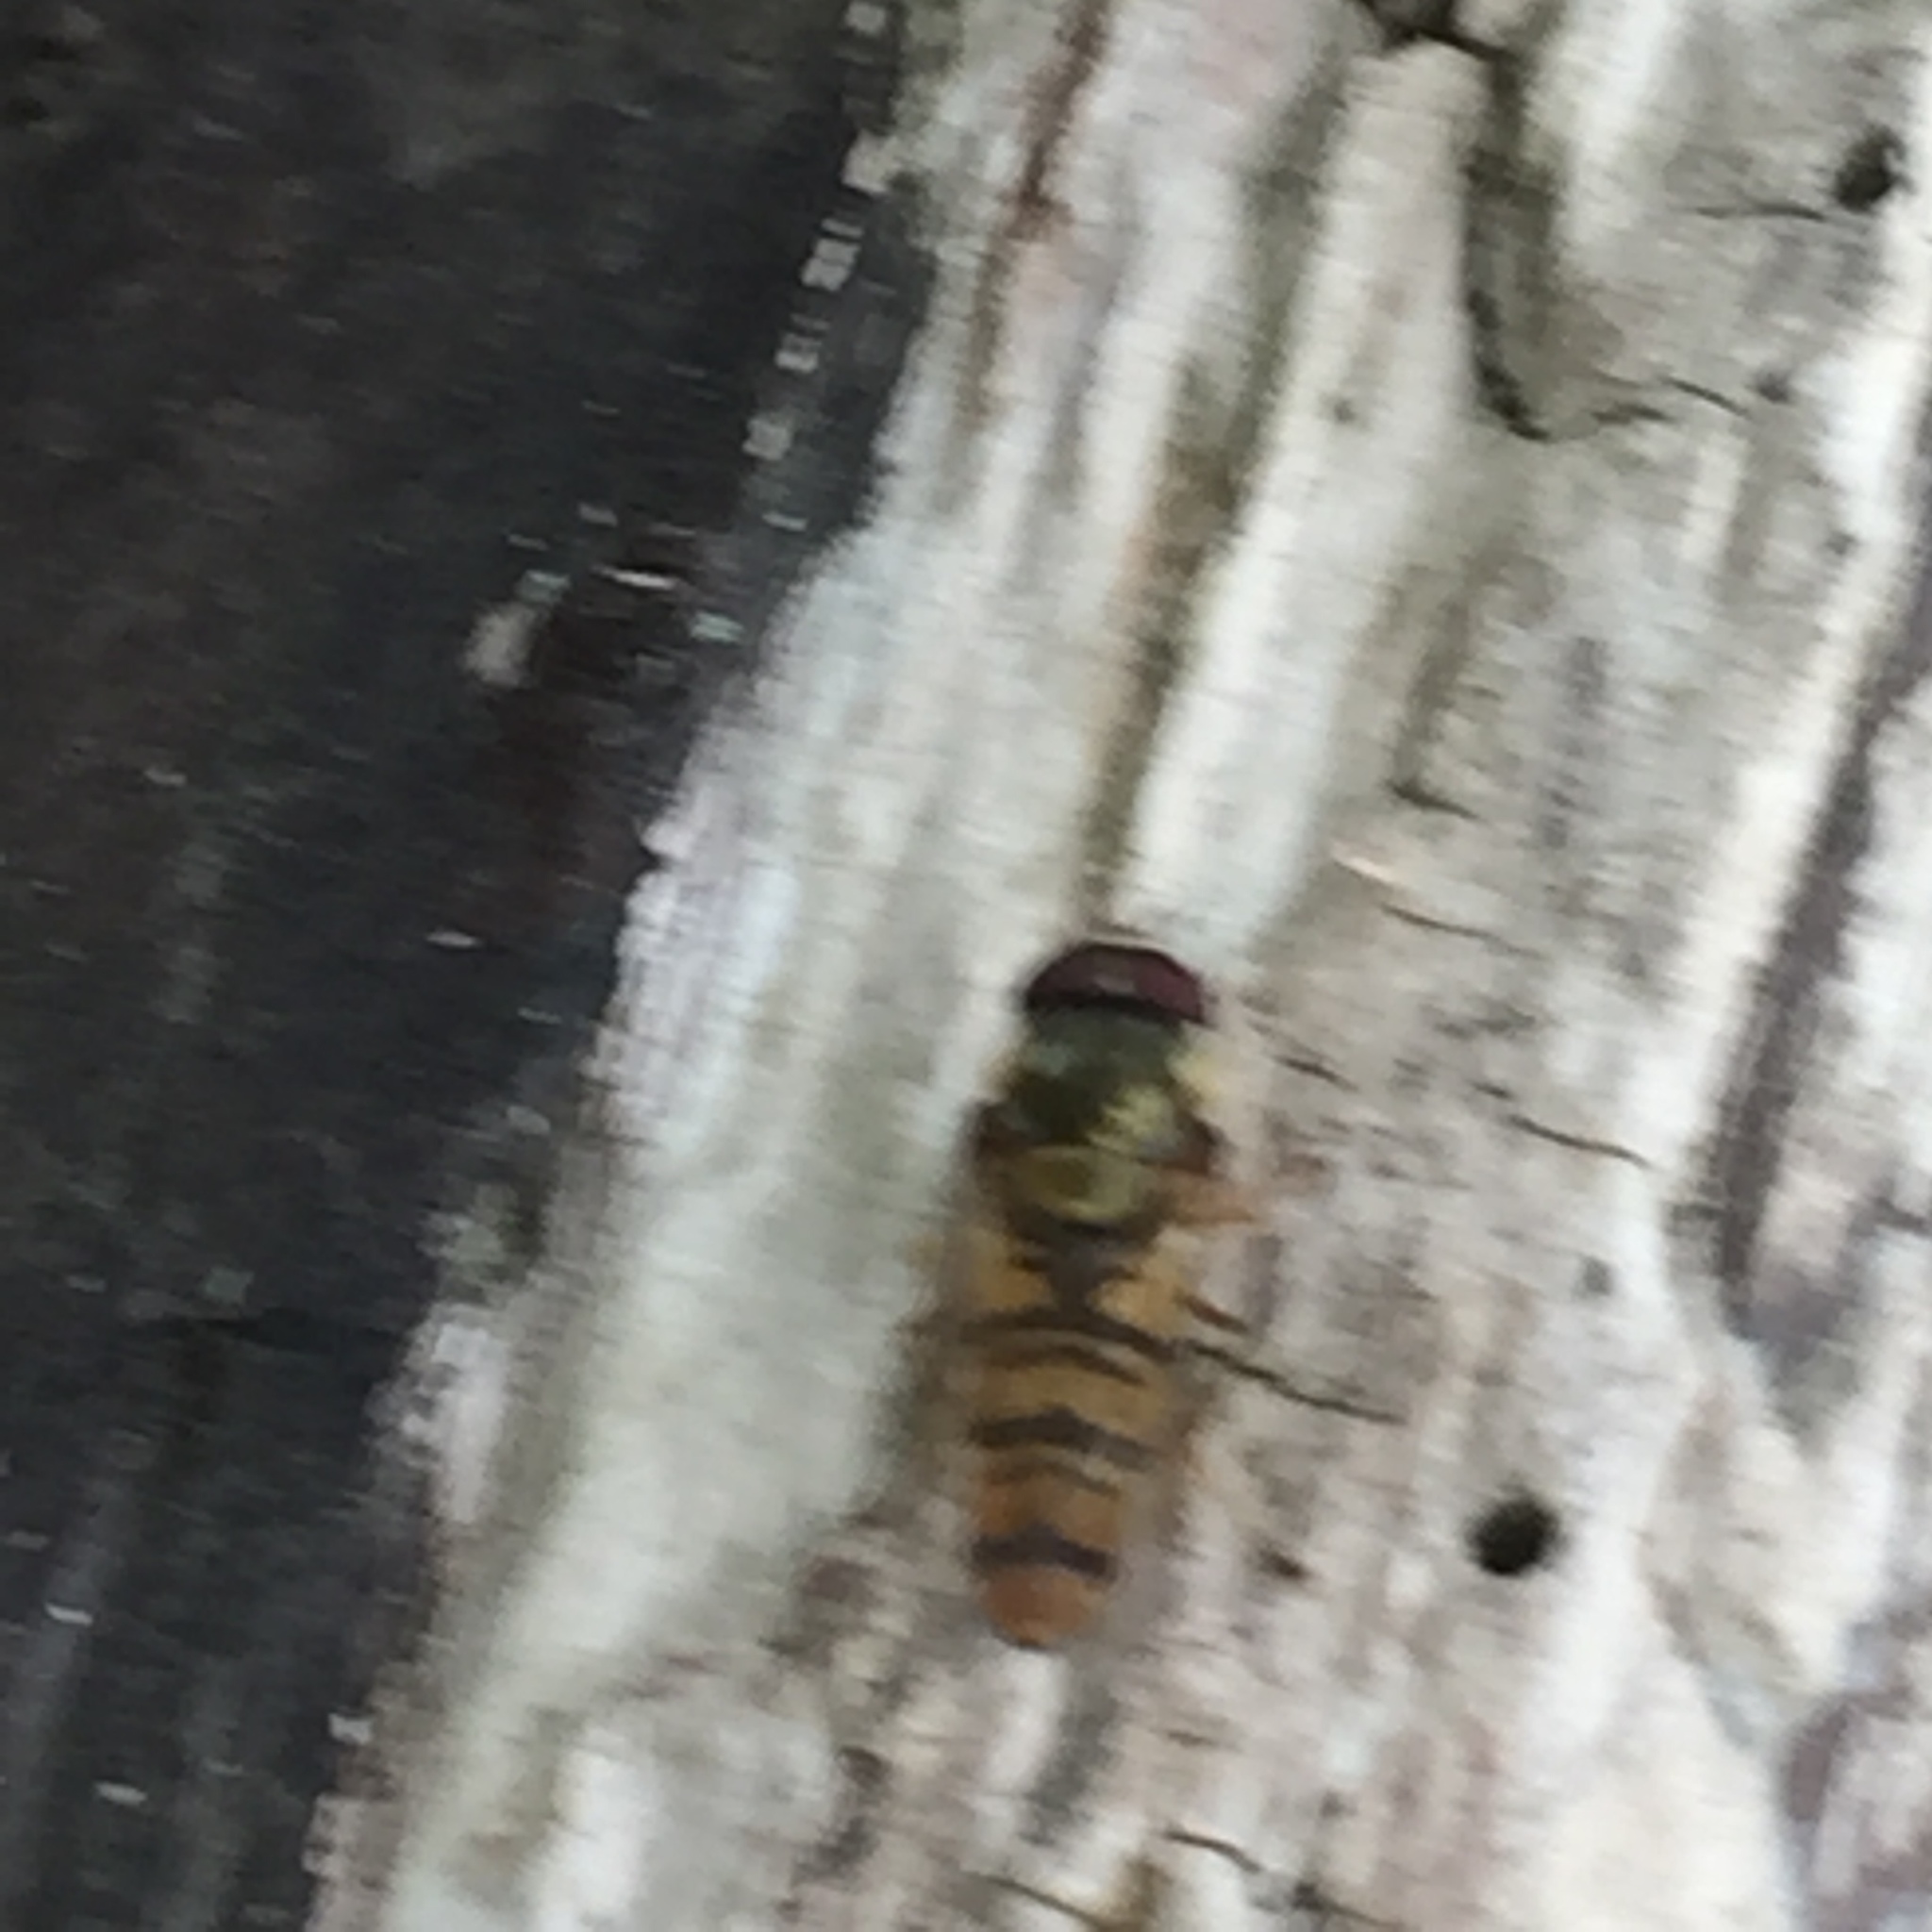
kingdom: Animalia
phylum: Arthropoda
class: Insecta
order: Diptera
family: Syrphidae
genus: Episyrphus
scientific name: Episyrphus balteatus
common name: Marmalade hoverfly
